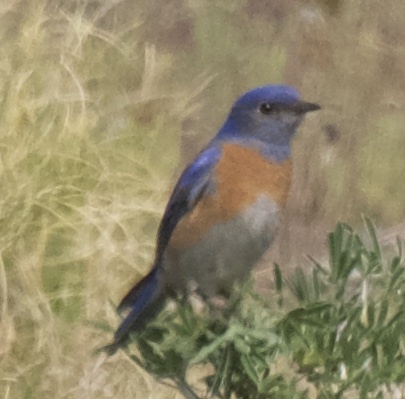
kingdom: Animalia
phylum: Chordata
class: Aves
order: Passeriformes
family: Turdidae
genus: Sialia
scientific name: Sialia mexicana
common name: Western bluebird
